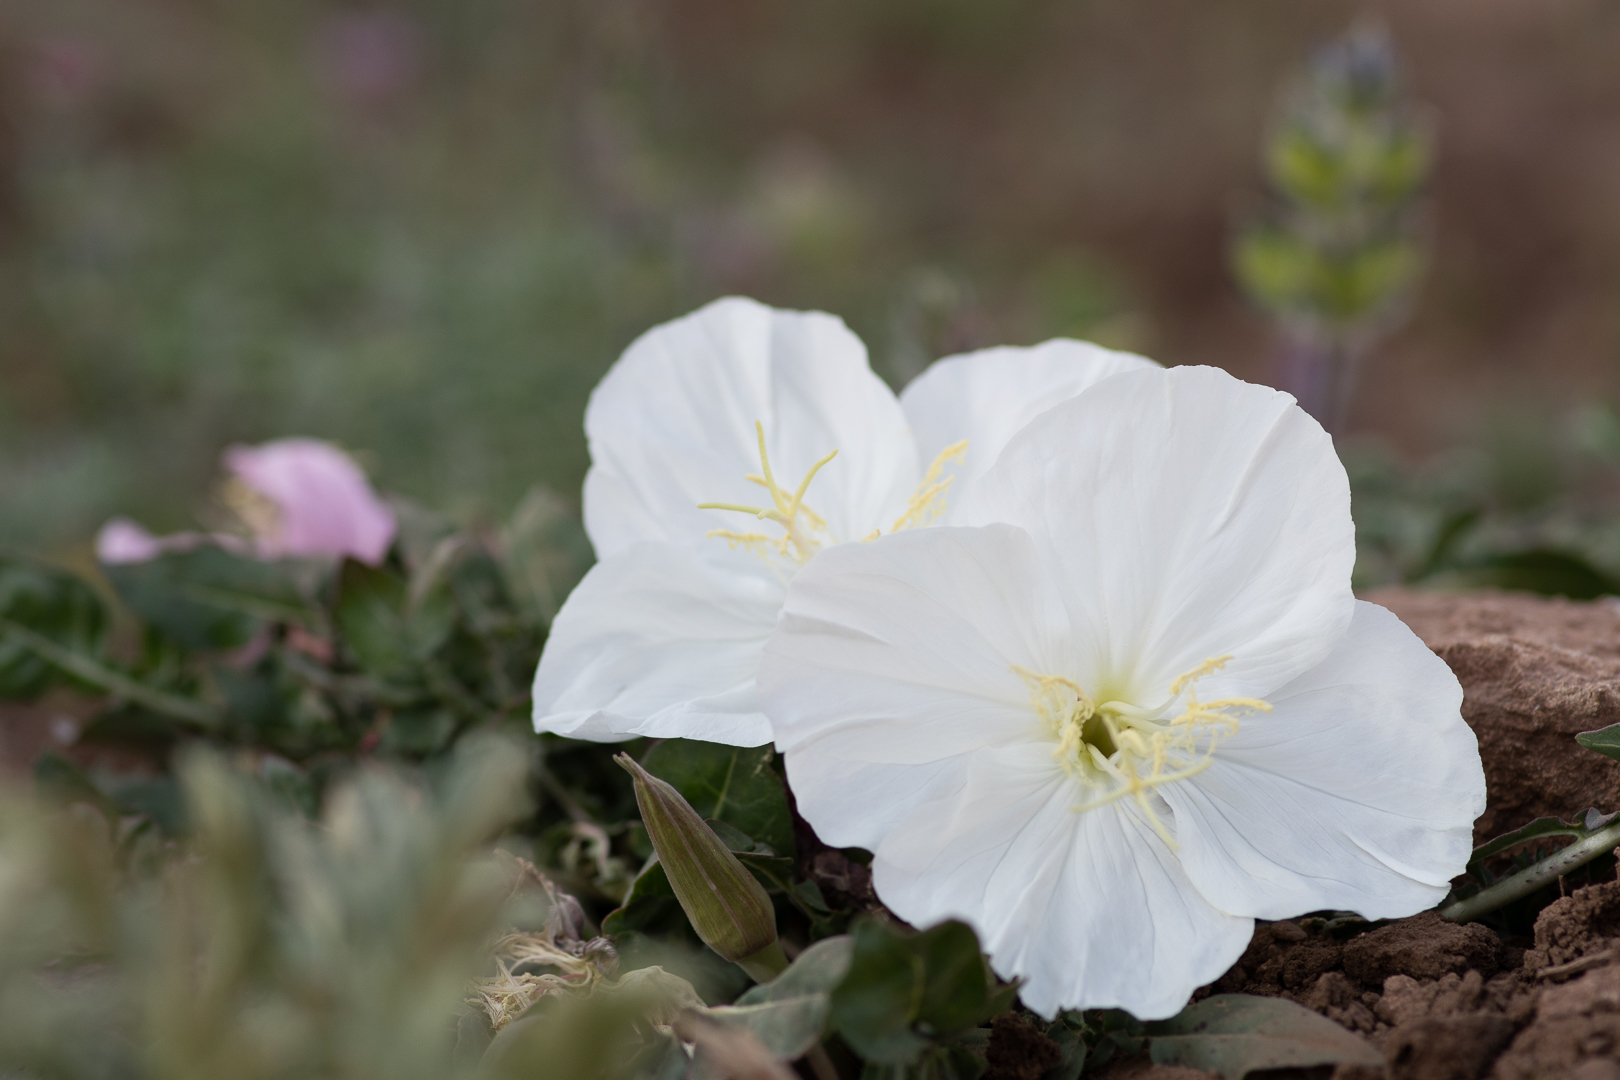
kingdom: Plantae
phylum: Tracheophyta
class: Magnoliopsida
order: Myrtales
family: Onagraceae
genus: Oenothera
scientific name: Oenothera acaulis
